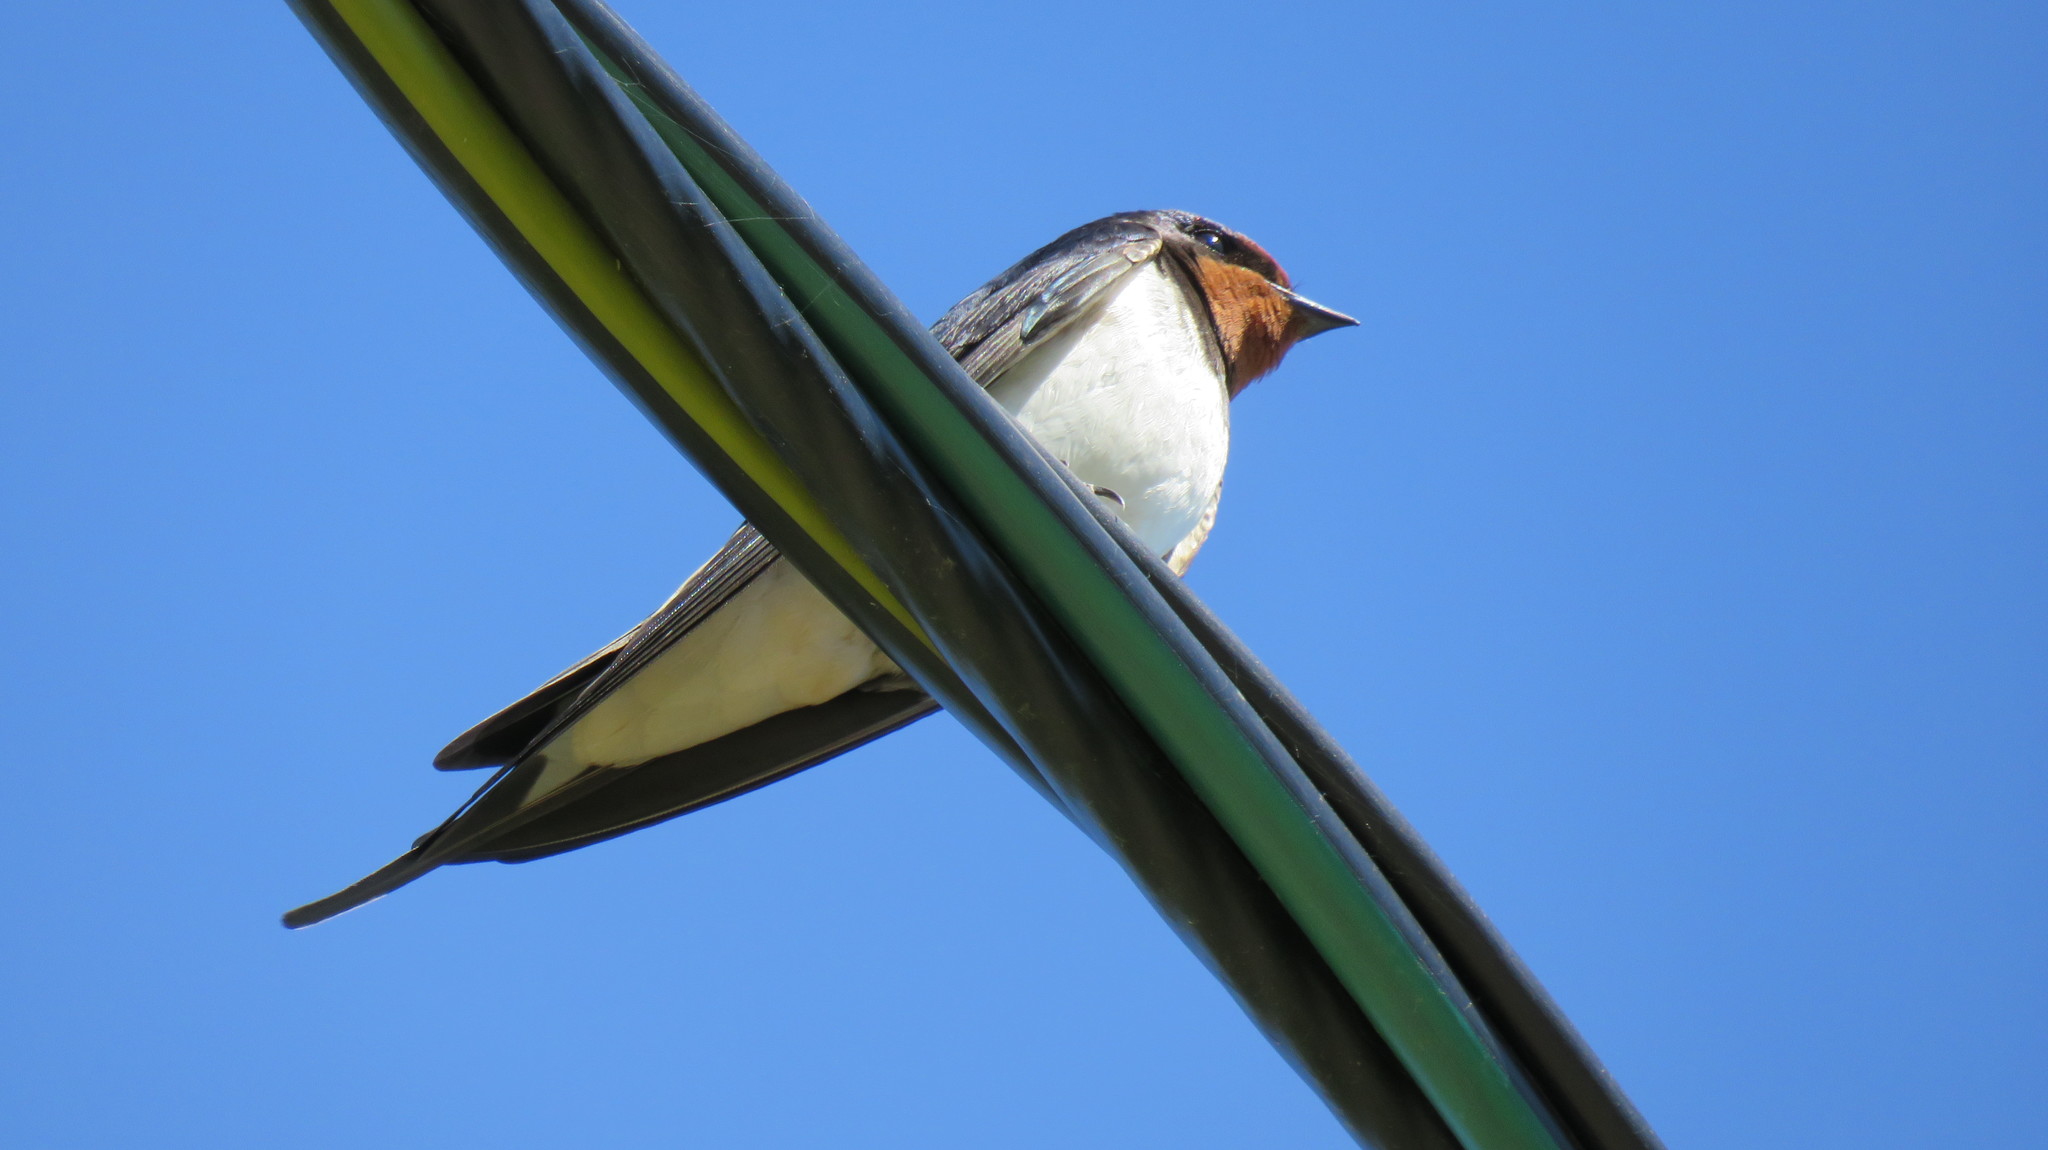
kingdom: Animalia
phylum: Chordata
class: Aves
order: Passeriformes
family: Hirundinidae
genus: Hirundo
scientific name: Hirundo rustica
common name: Barn swallow
